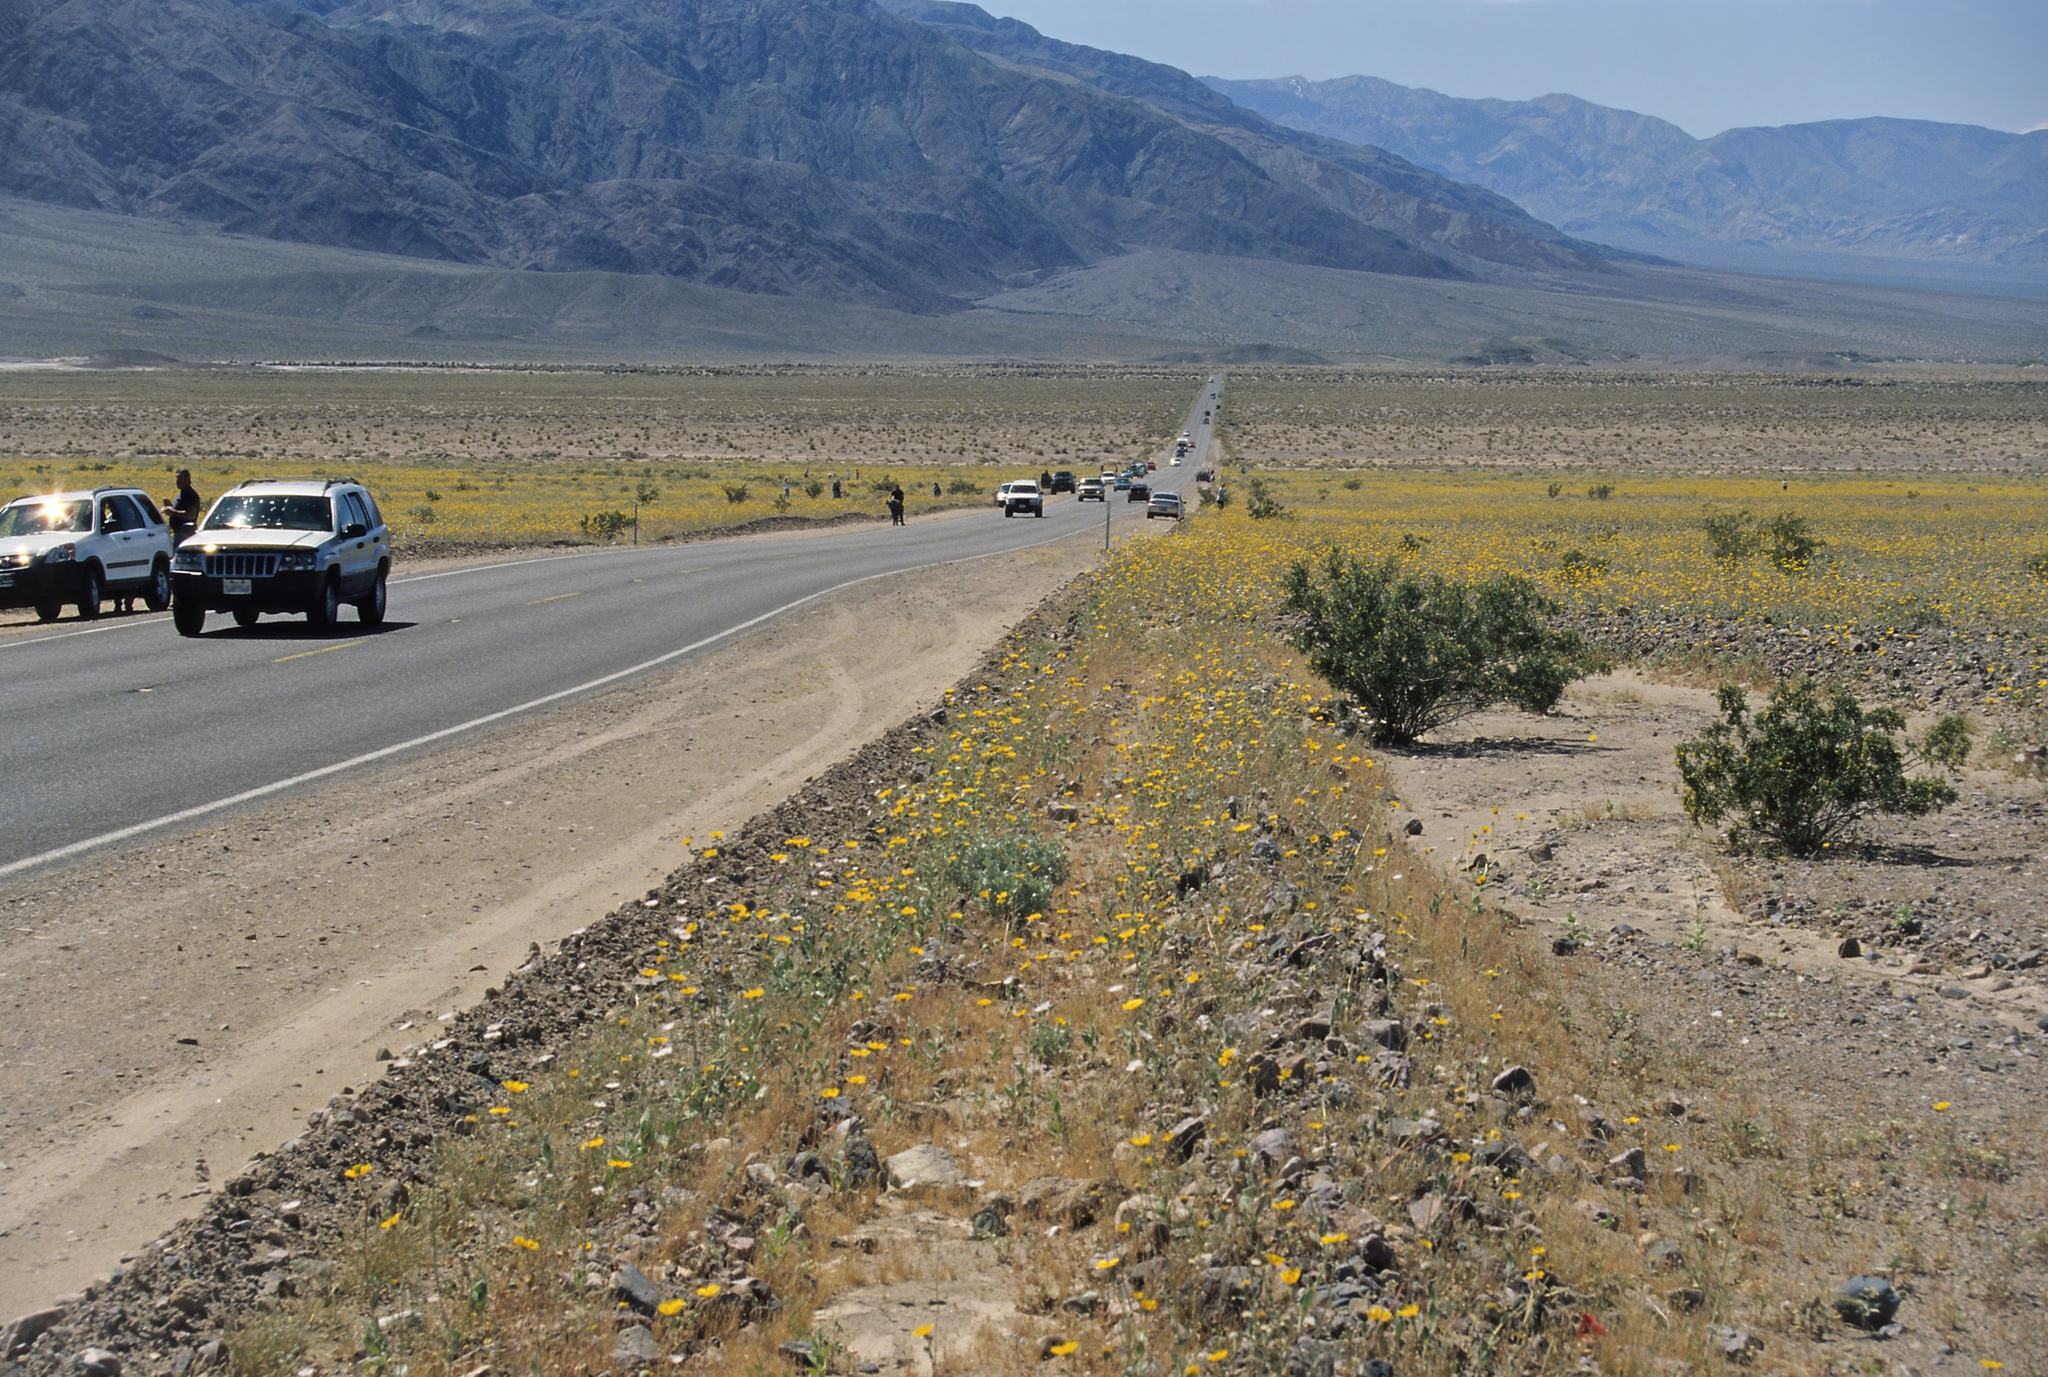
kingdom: Plantae
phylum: Tracheophyta
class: Magnoliopsida
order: Asterales
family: Asteraceae
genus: Geraea
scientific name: Geraea canescens
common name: Desert-gold
